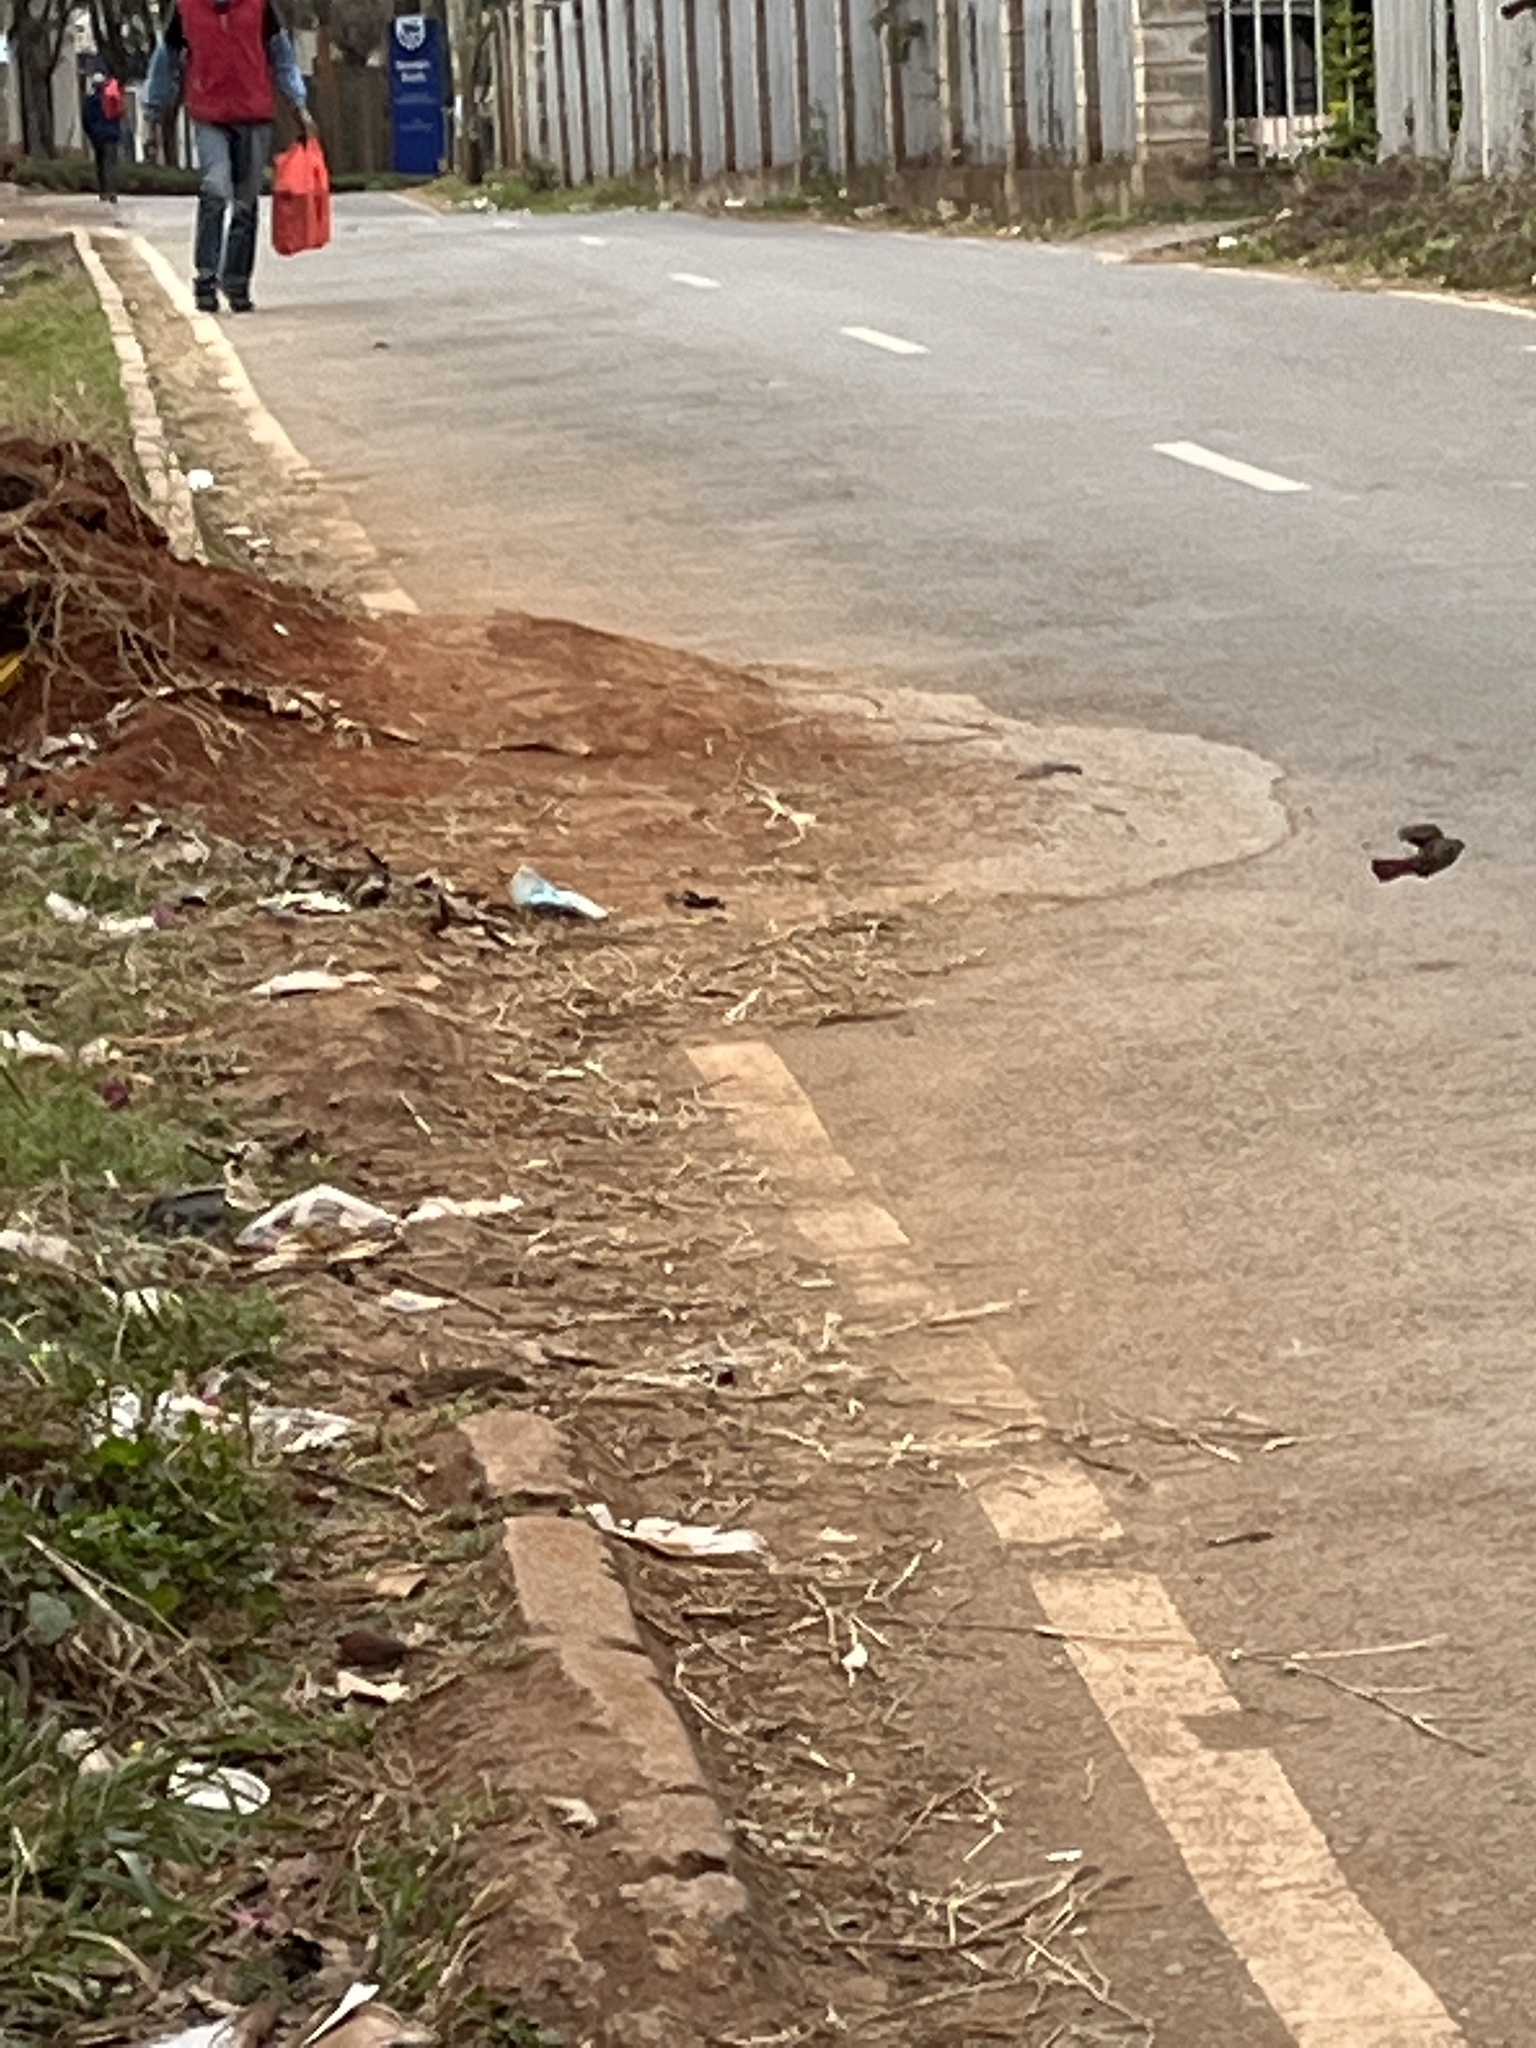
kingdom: Animalia
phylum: Chordata
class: Aves
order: Passeriformes
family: Estrildidae
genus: Lagonosticta
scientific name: Lagonosticta senegala
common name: Red-billed firefinch
